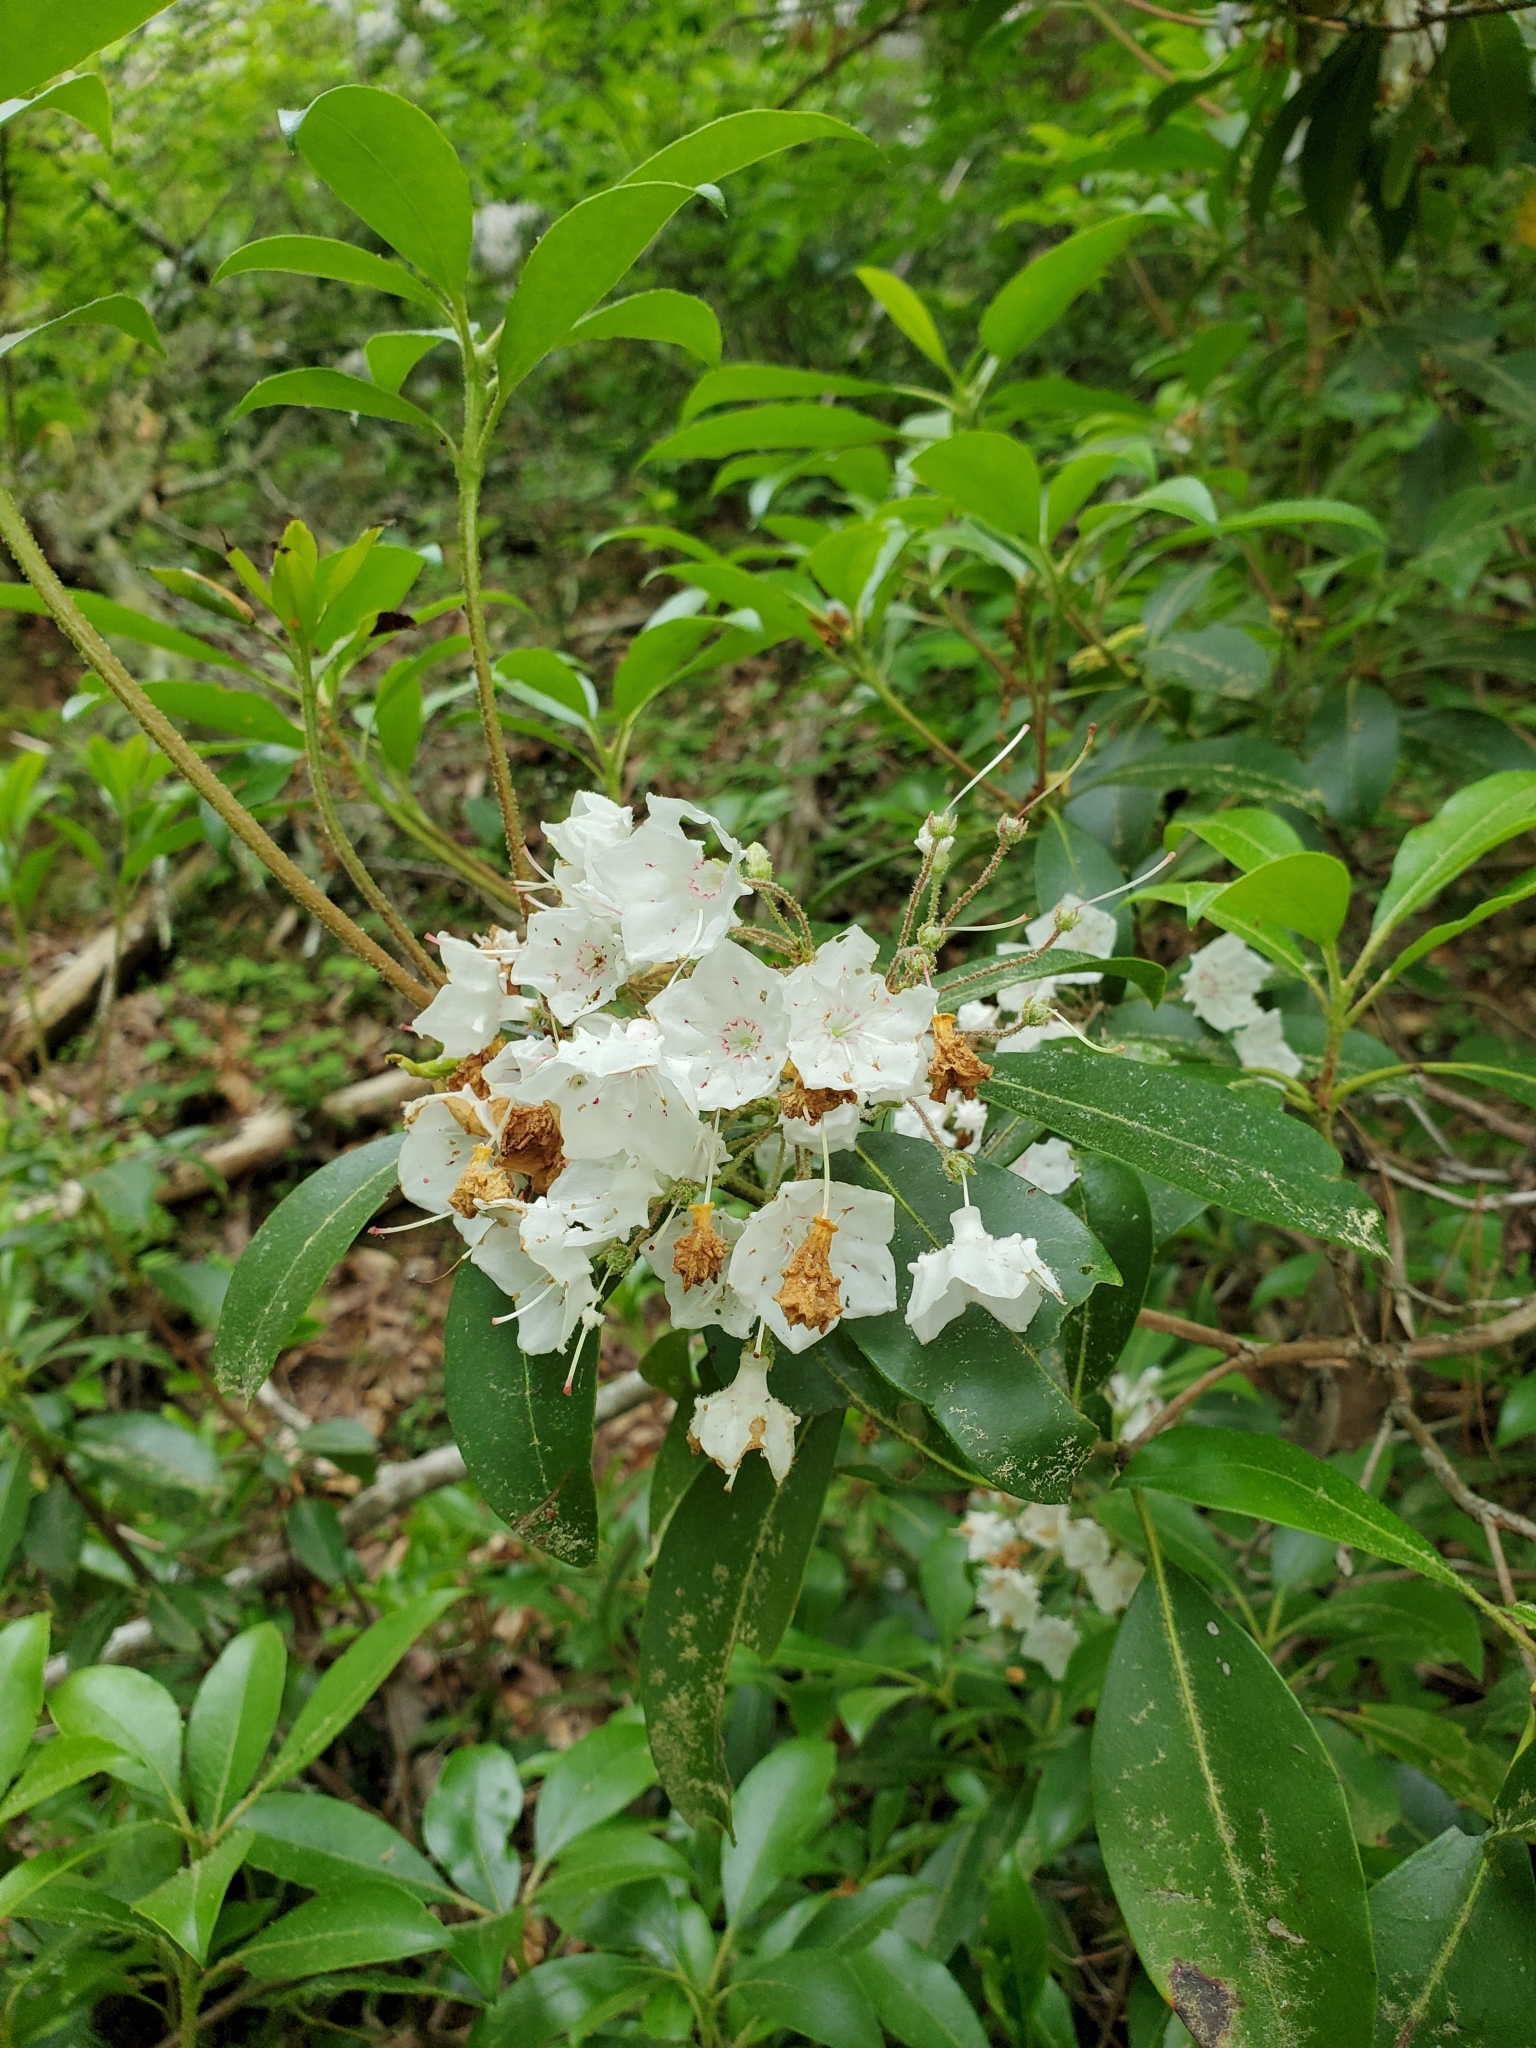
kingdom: Plantae
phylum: Tracheophyta
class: Magnoliopsida
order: Ericales
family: Ericaceae
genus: Kalmia
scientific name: Kalmia latifolia
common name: Mountain-laurel
